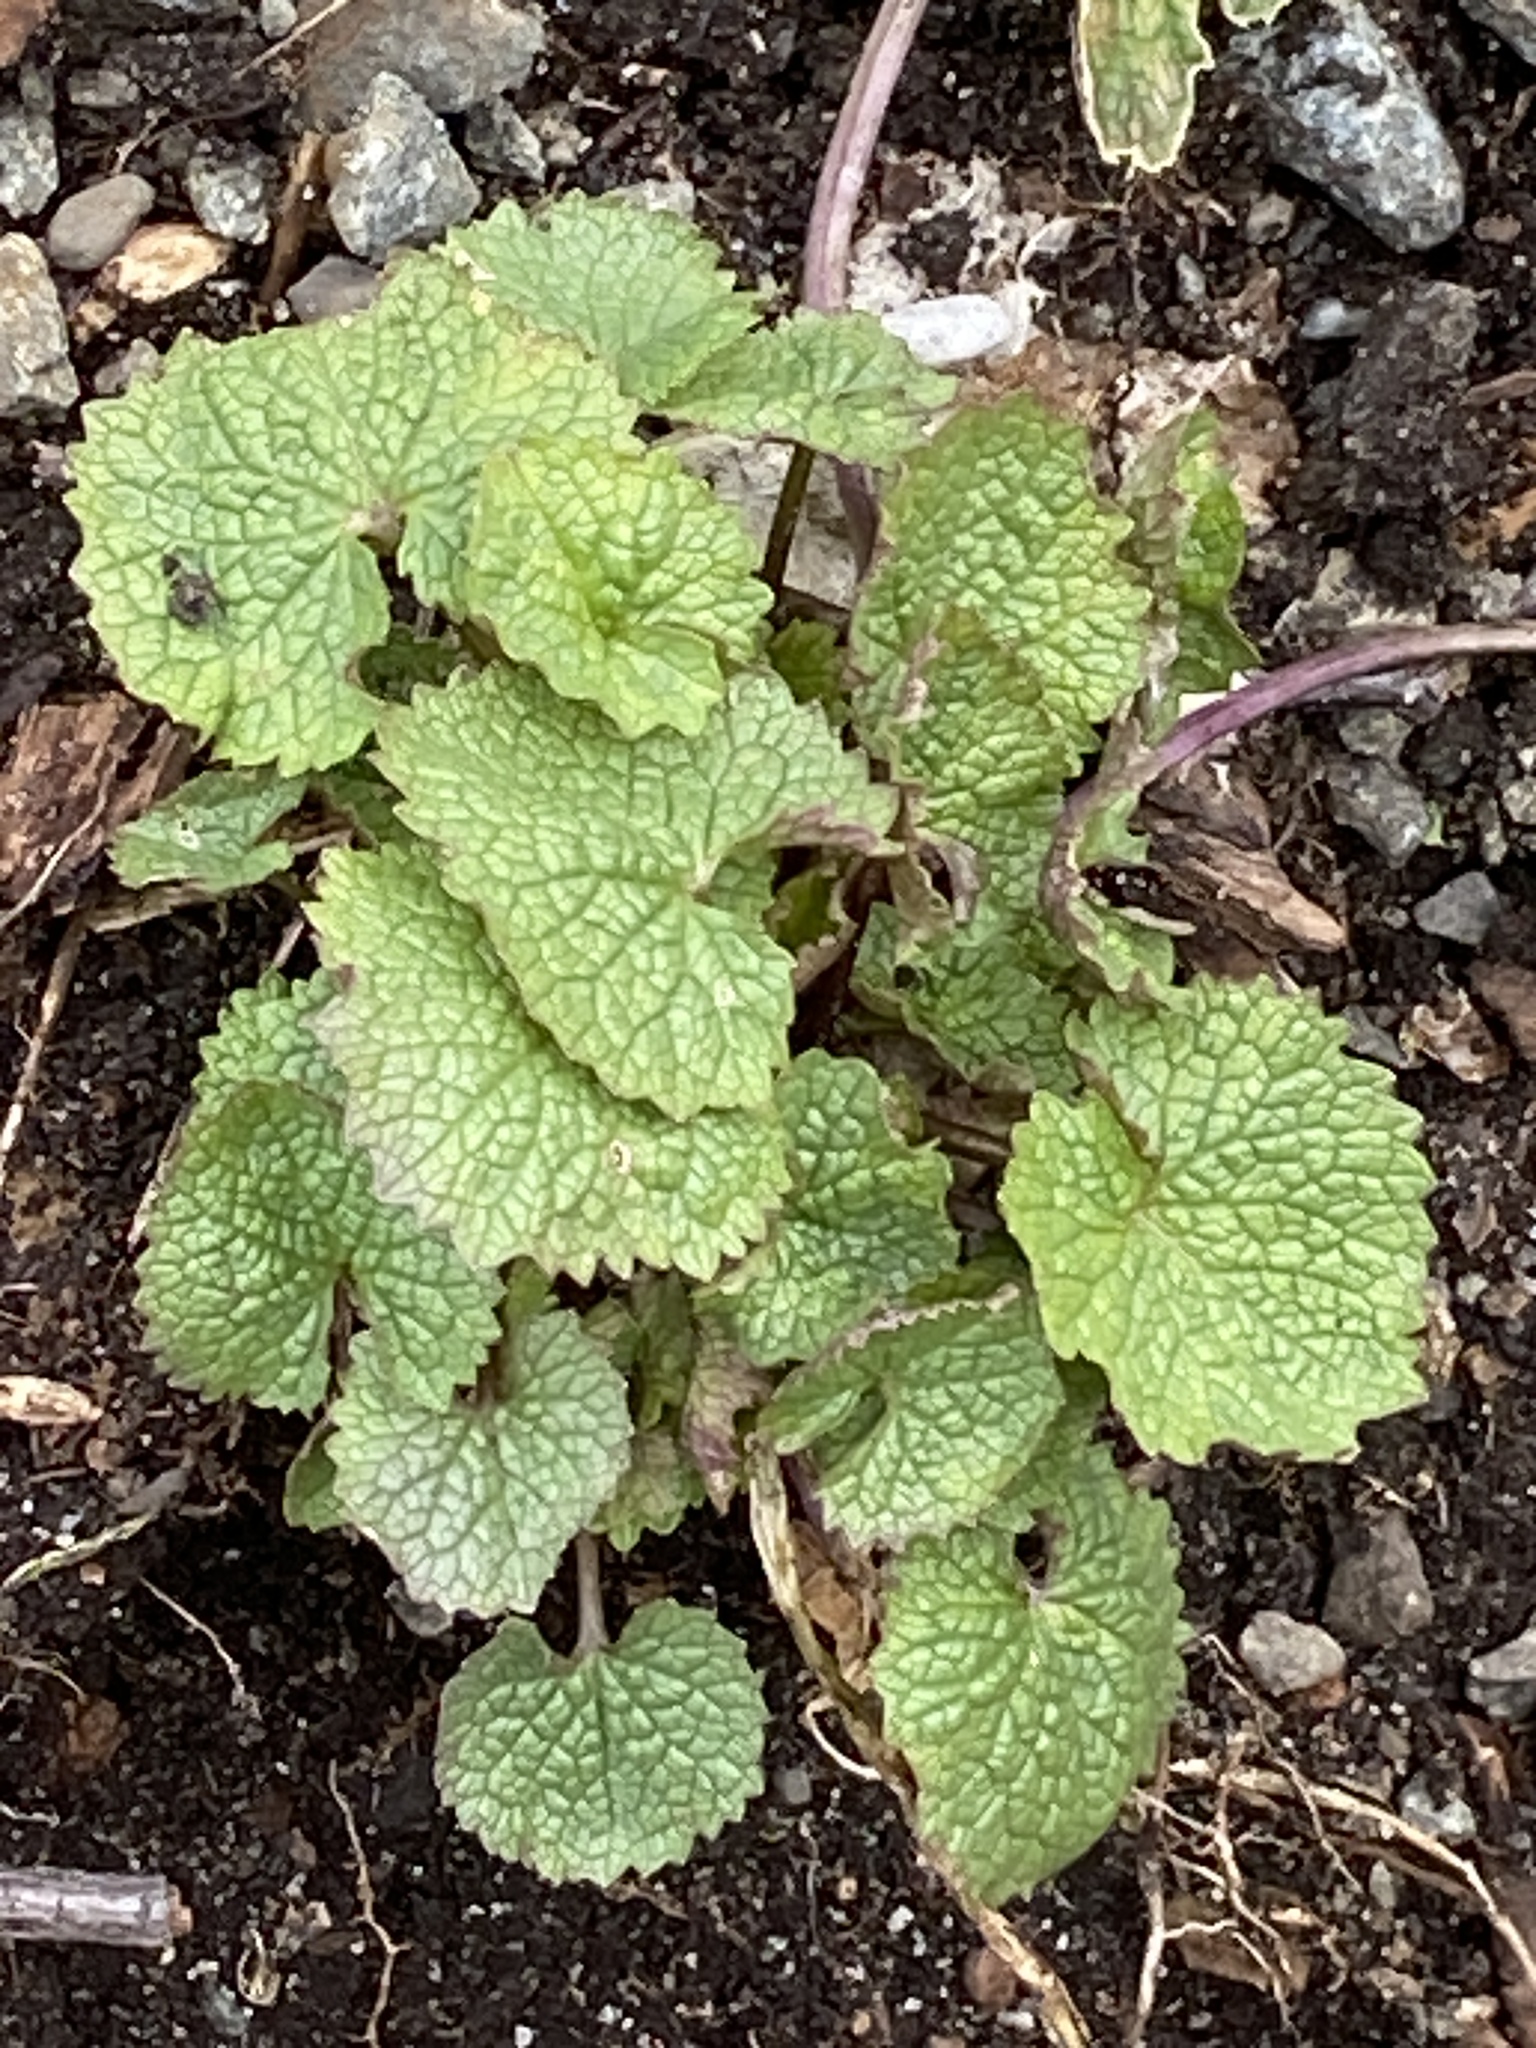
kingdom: Plantae
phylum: Tracheophyta
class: Magnoliopsida
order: Brassicales
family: Brassicaceae
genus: Alliaria
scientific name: Alliaria petiolata
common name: Garlic mustard
